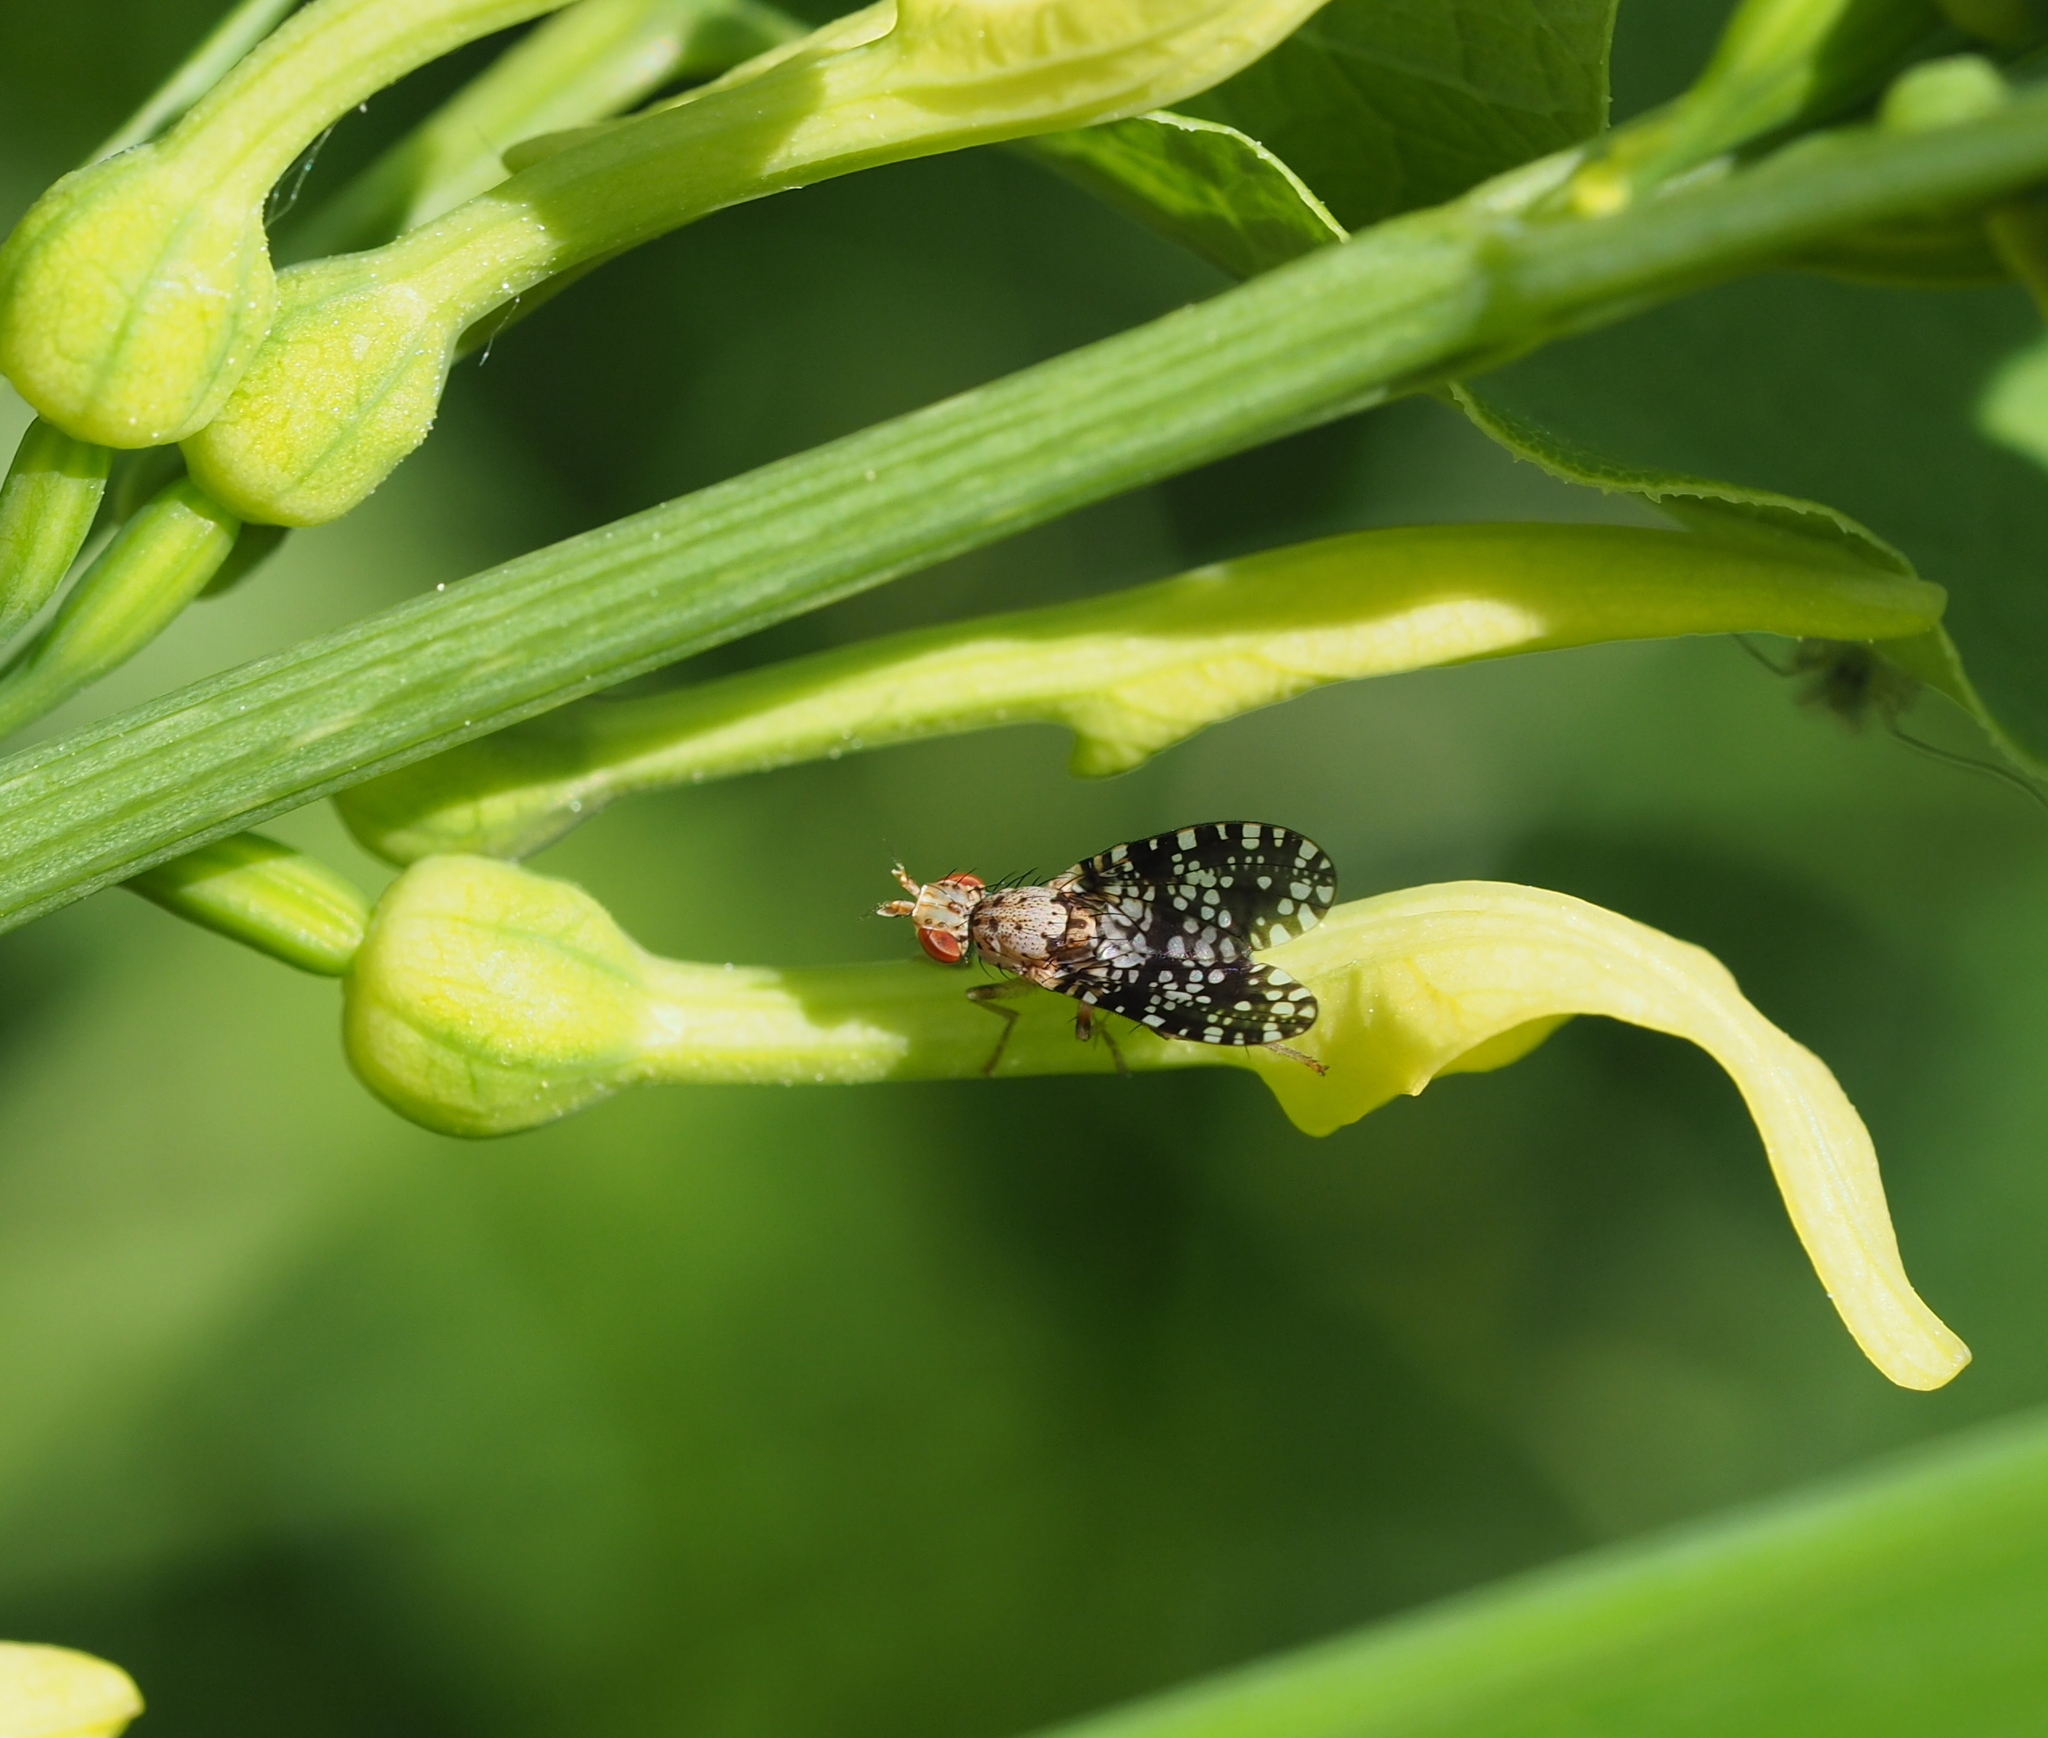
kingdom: Animalia
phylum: Arthropoda
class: Insecta
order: Diptera
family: Sciomyzidae
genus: Trypetoptera
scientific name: Trypetoptera punctulata
